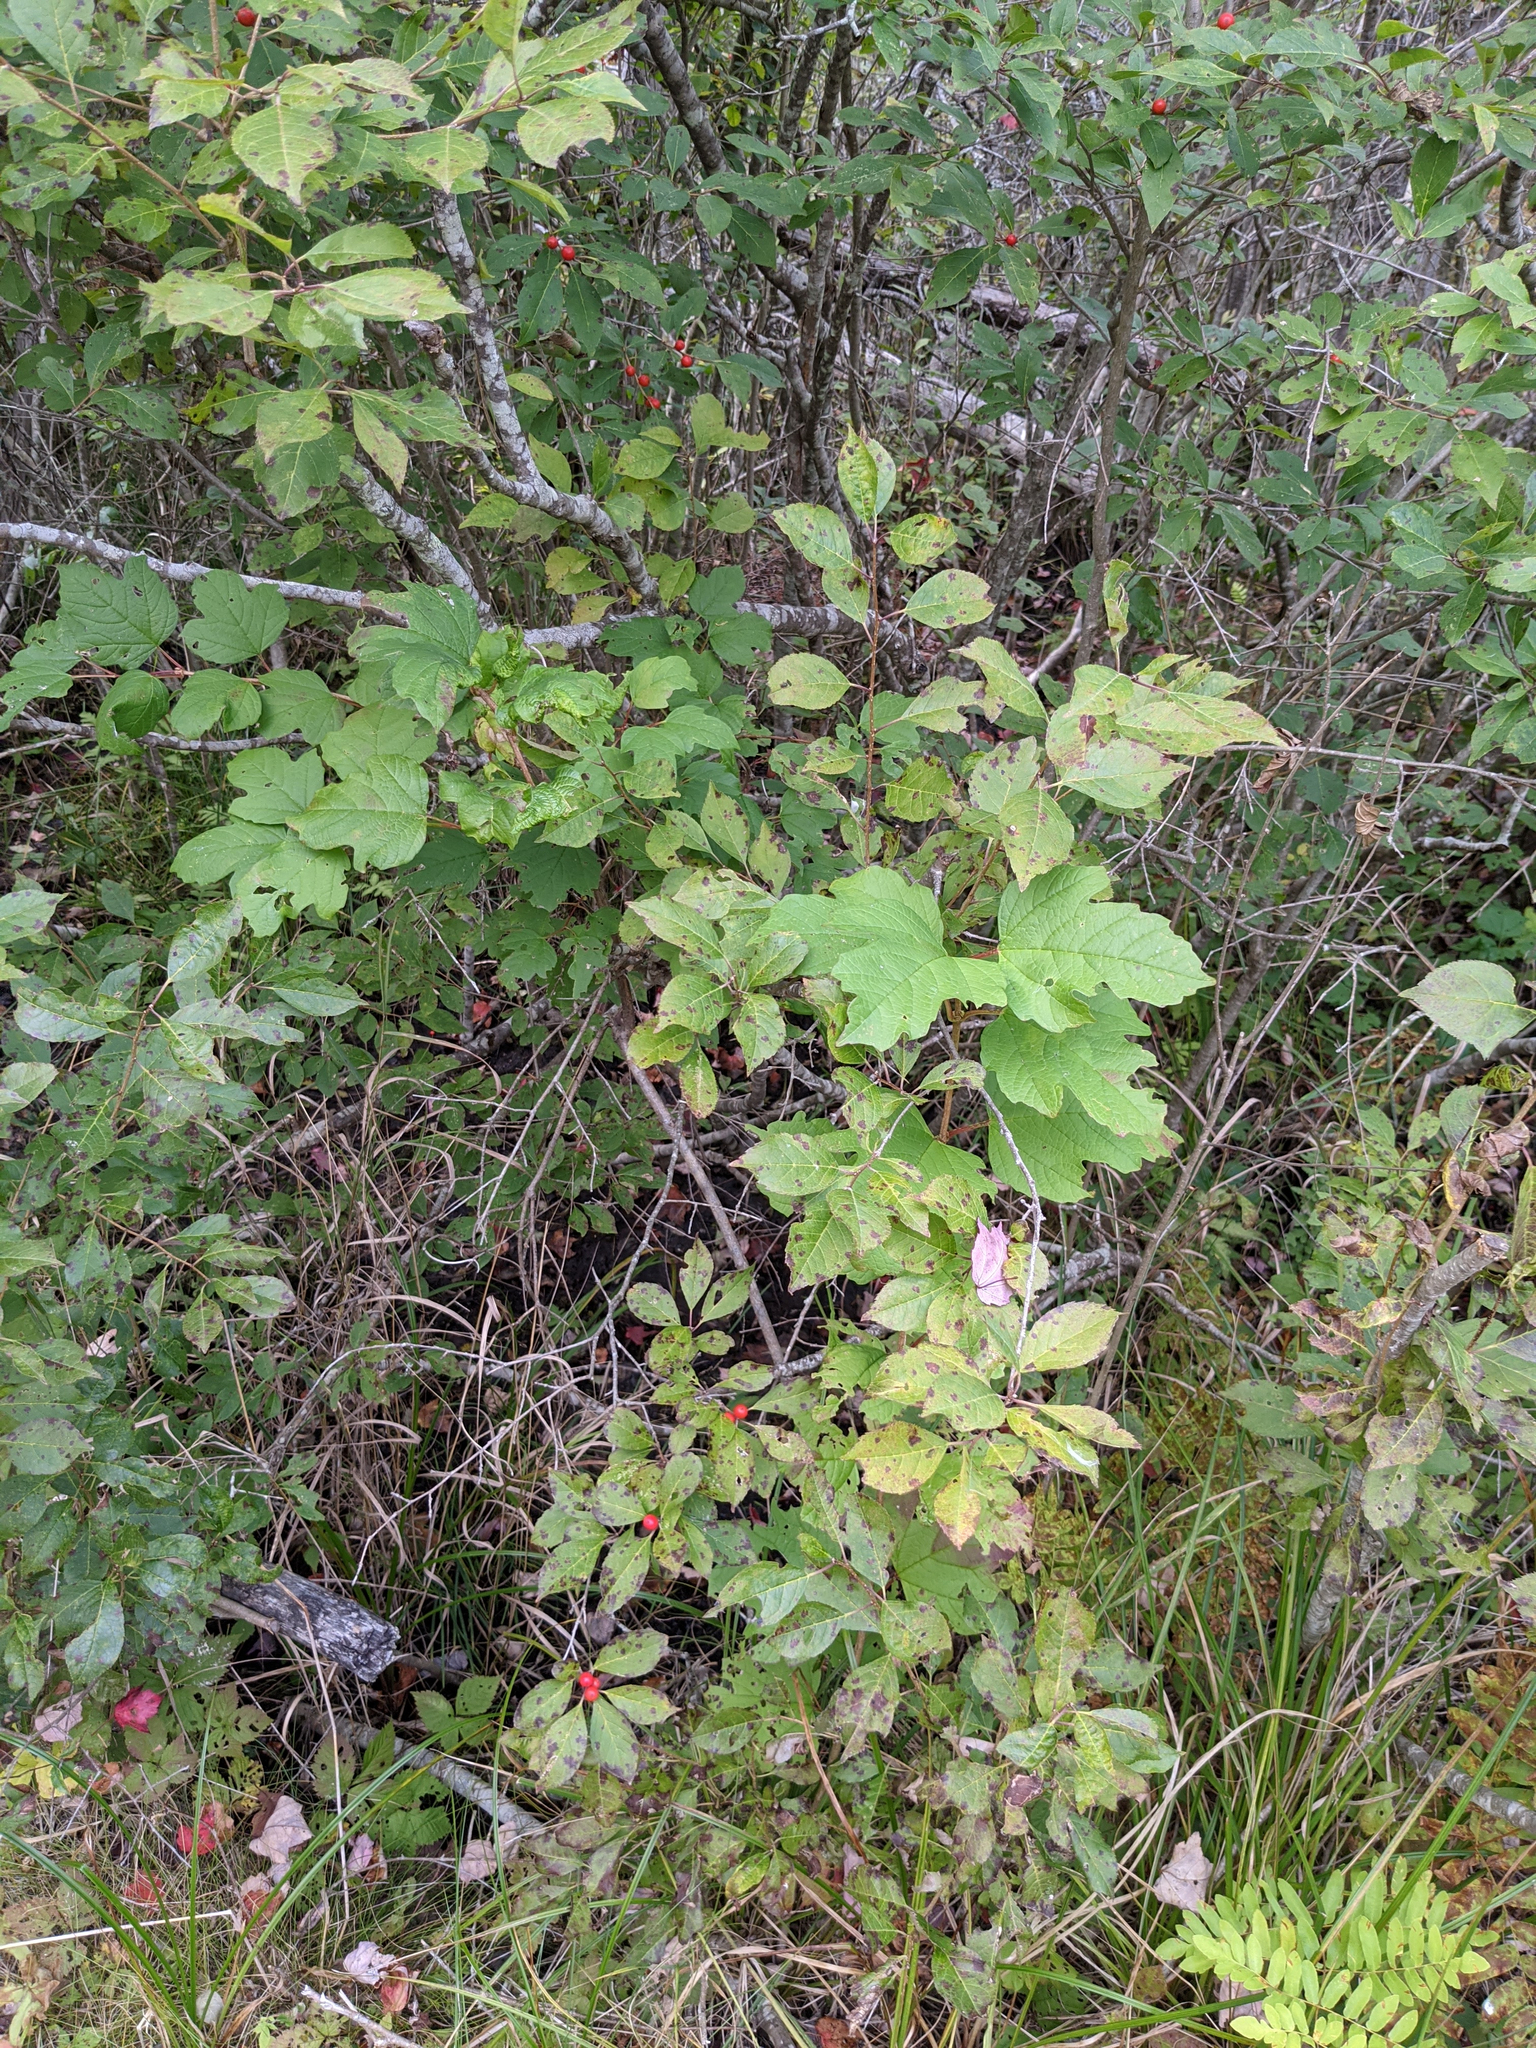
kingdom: Plantae
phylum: Tracheophyta
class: Magnoliopsida
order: Dipsacales
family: Viburnaceae
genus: Viburnum
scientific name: Viburnum opulus
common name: Guelder-rose
